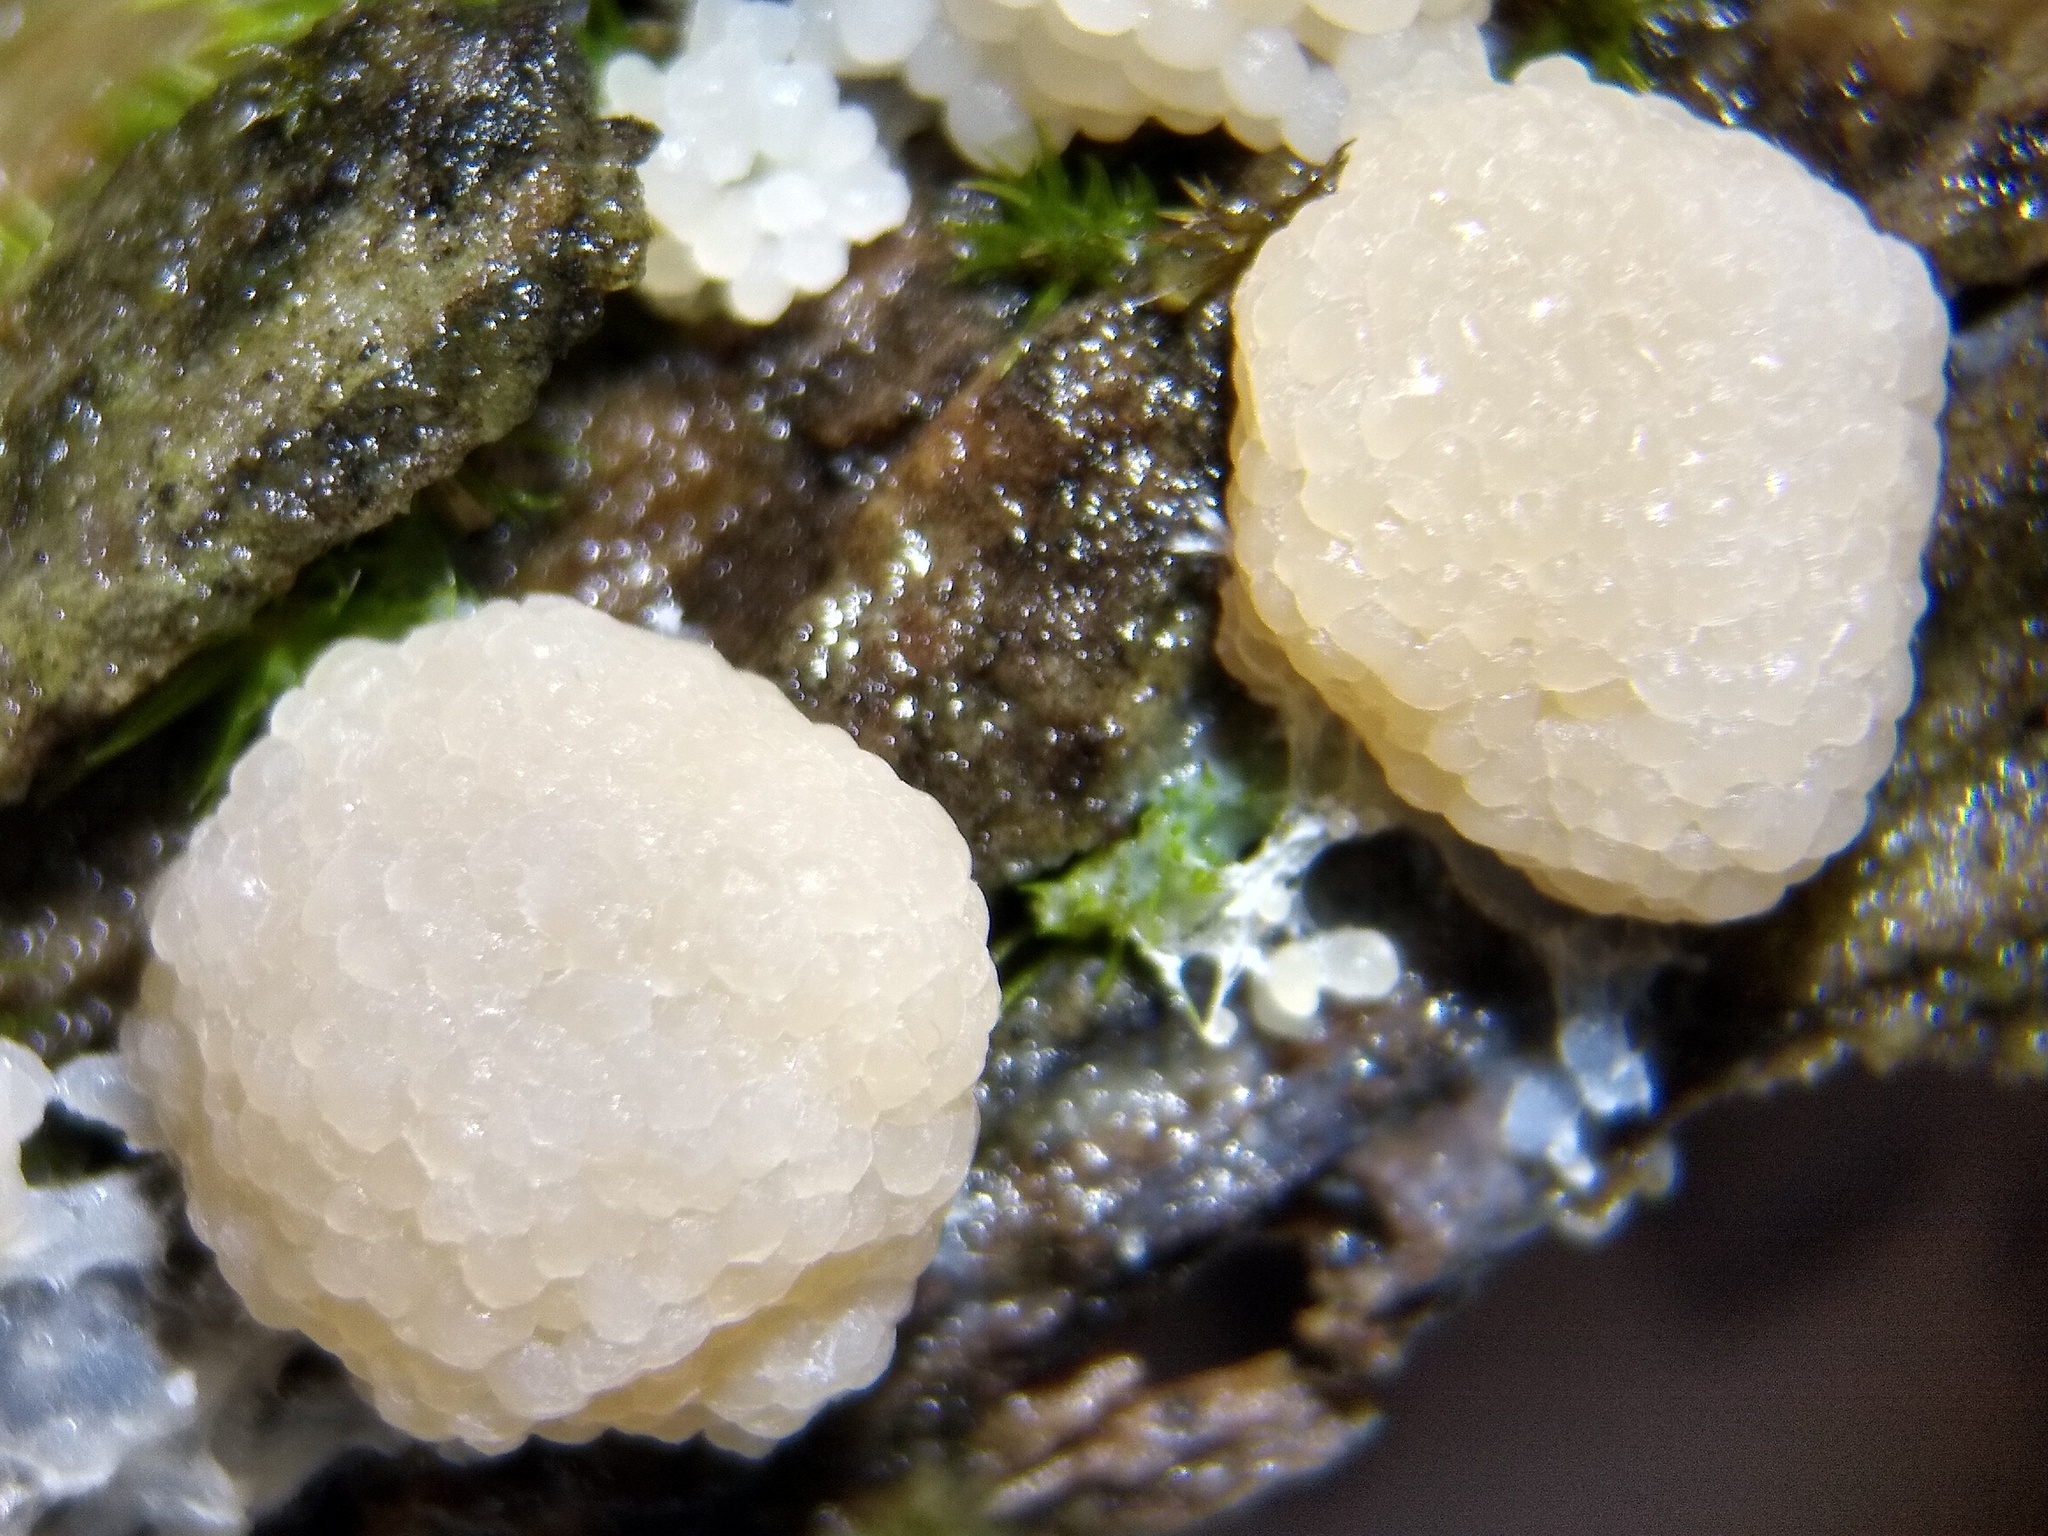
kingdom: Protozoa
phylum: Mycetozoa
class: Myxomycetes
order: Cribrariales
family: Tubiferaceae
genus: Tubifera
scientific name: Tubifera glareata
